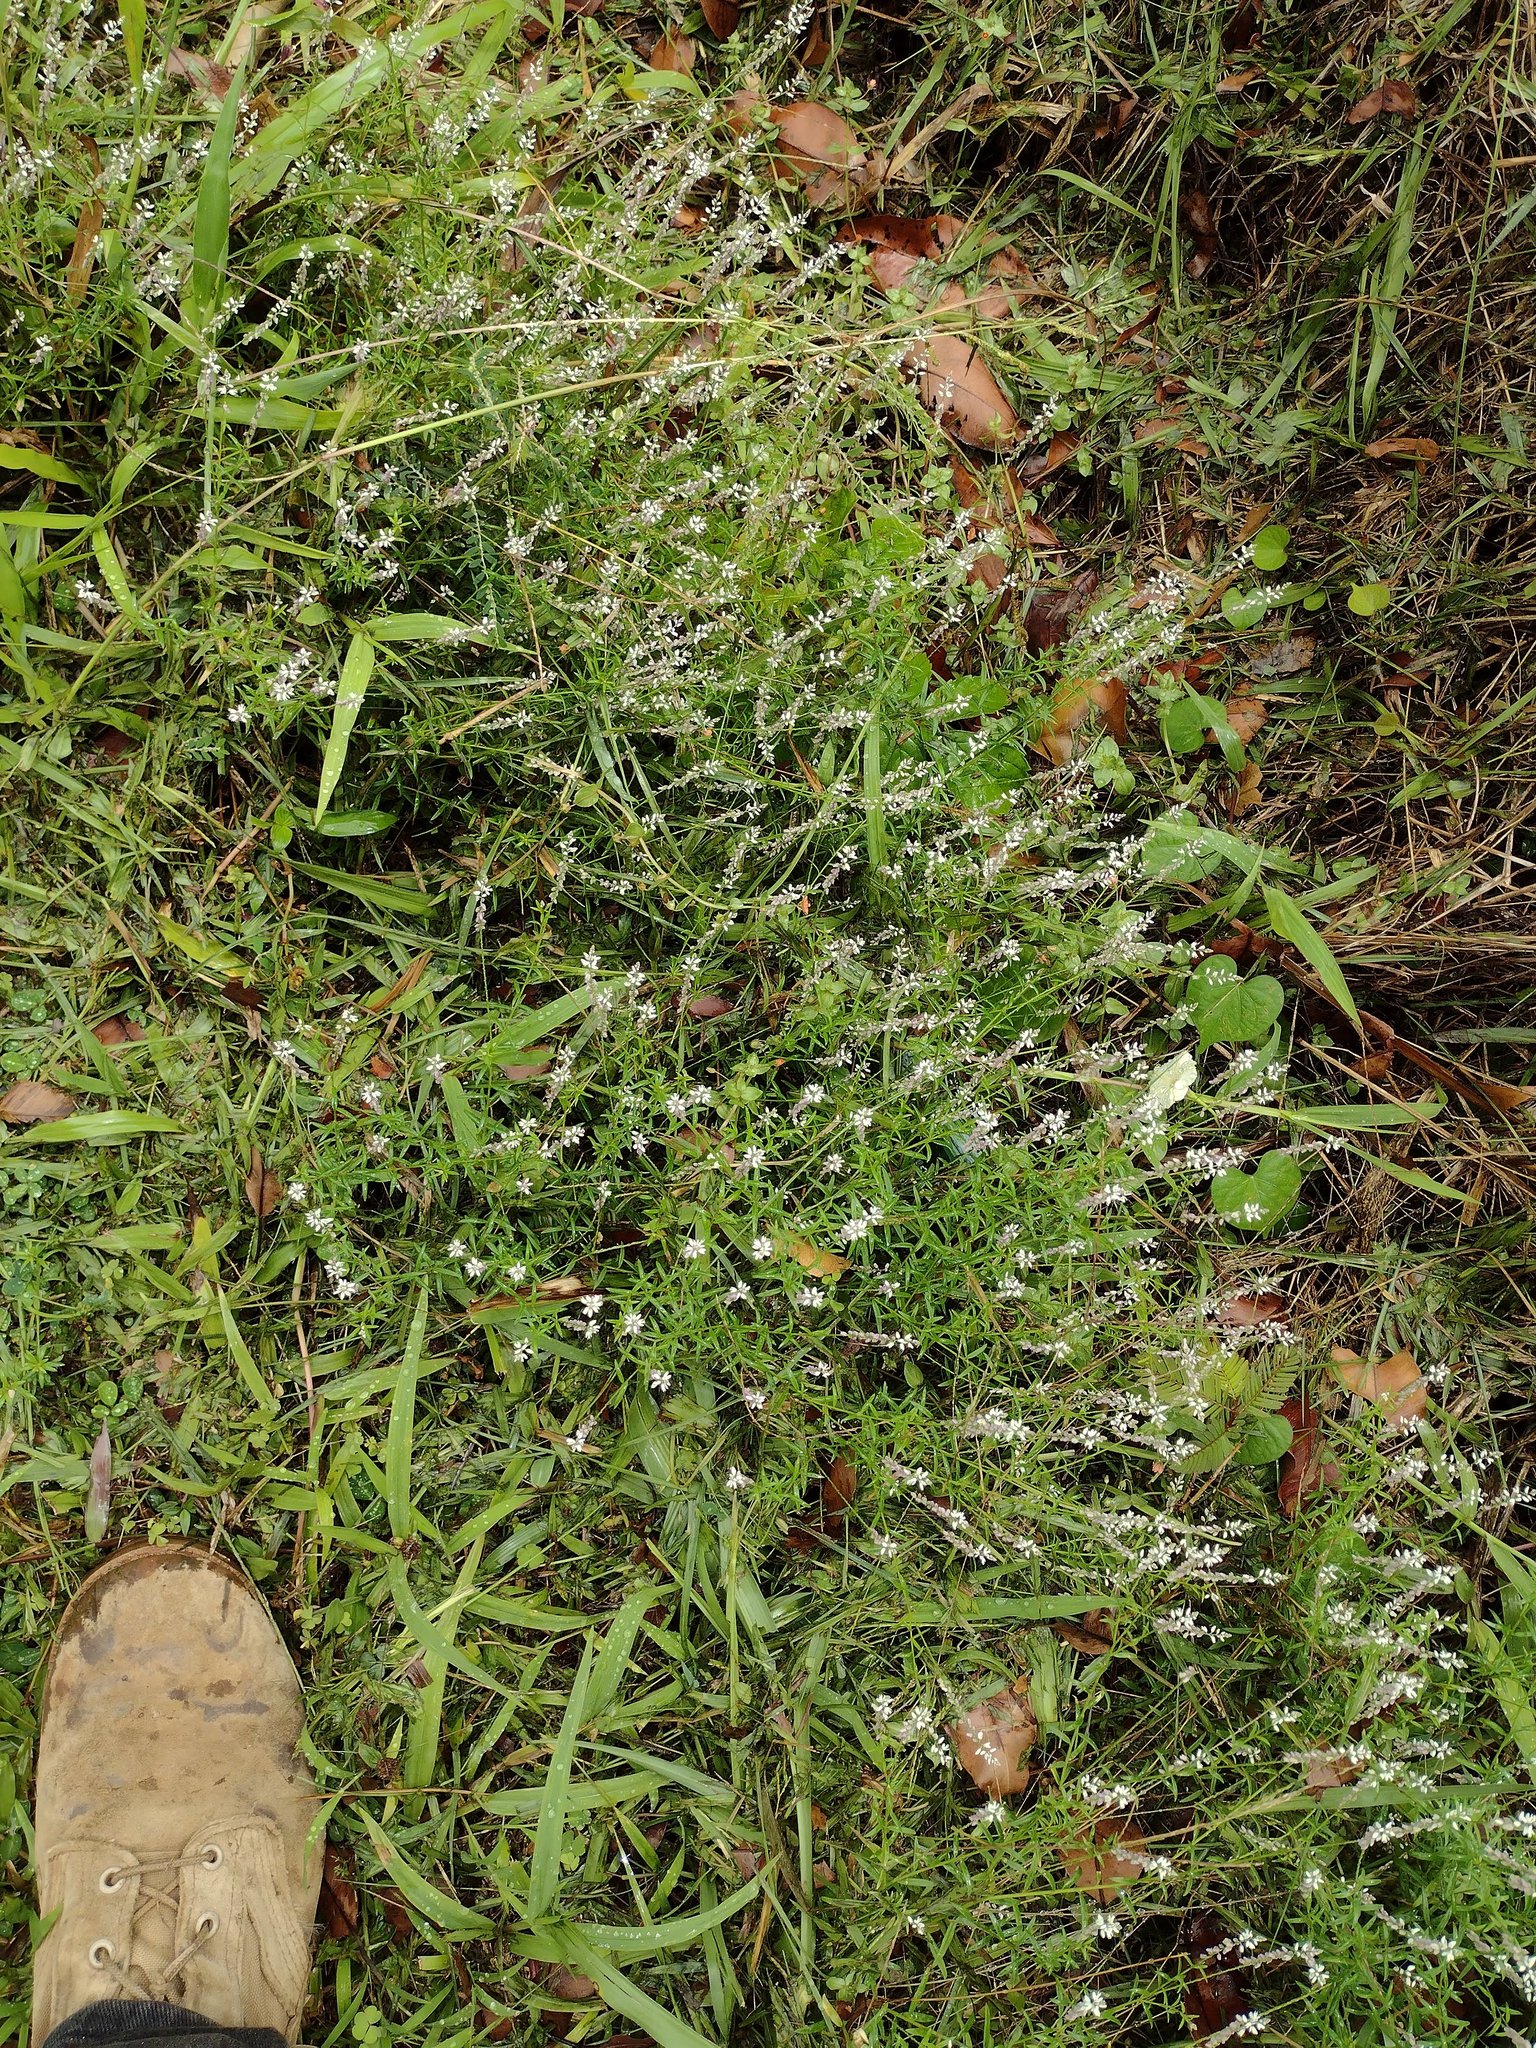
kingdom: Plantae
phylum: Tracheophyta
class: Magnoliopsida
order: Fabales
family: Polygalaceae
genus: Polygala
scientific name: Polygala paniculata
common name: Orosne
